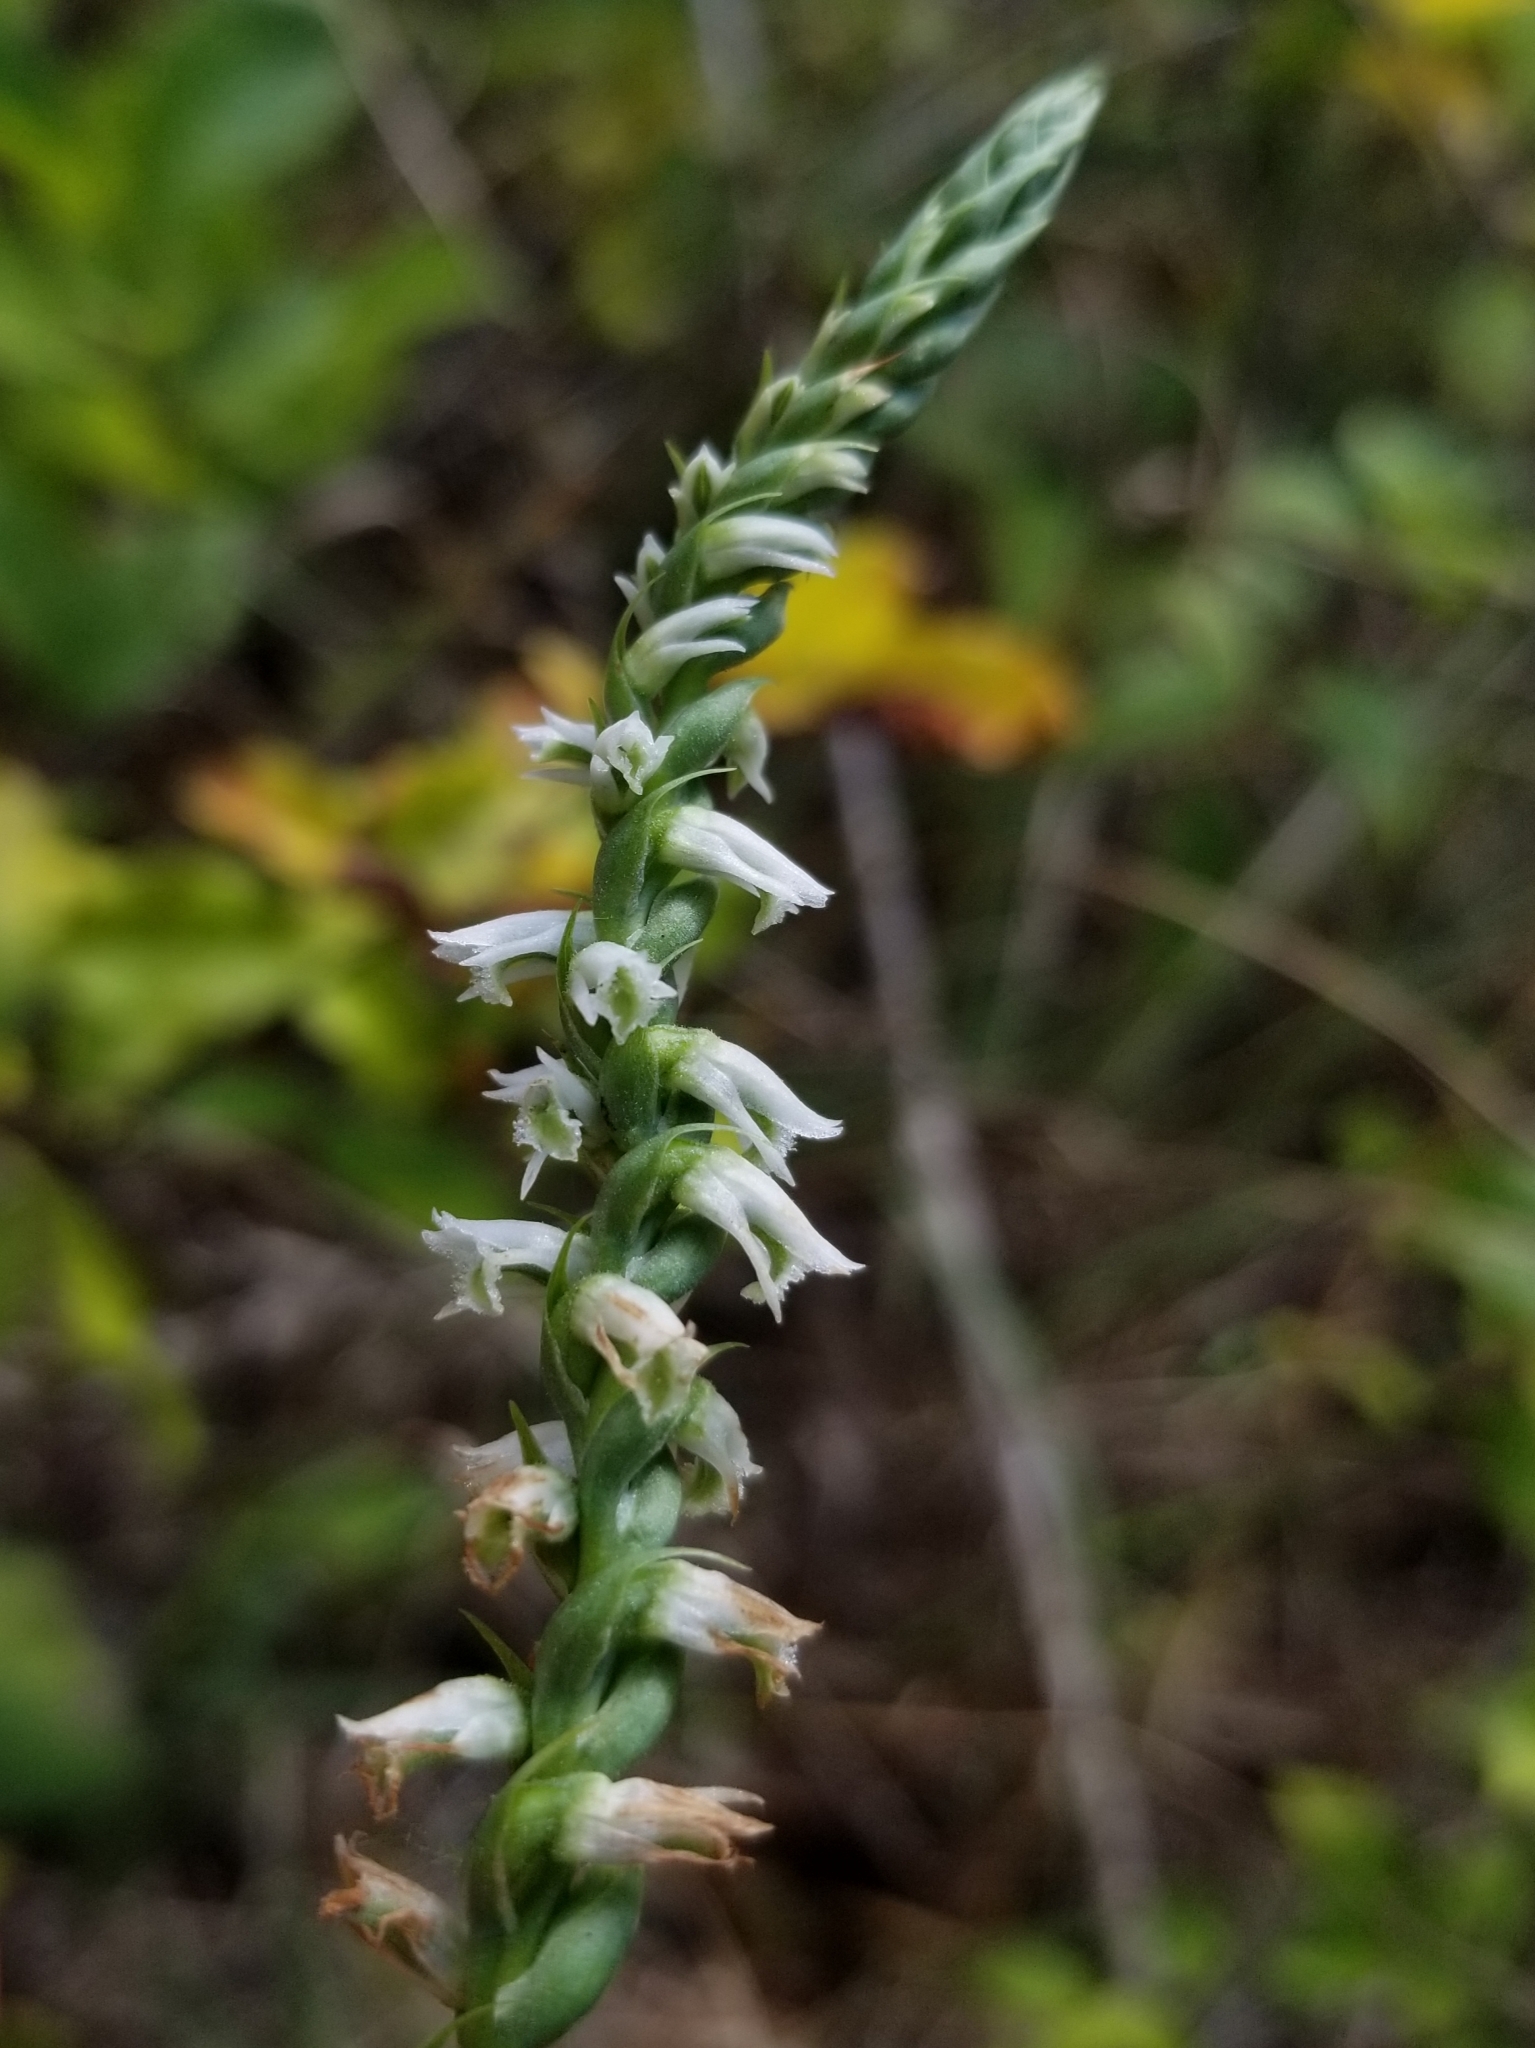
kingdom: Plantae
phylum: Tracheophyta
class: Liliopsida
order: Asparagales
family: Orchidaceae
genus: Spiranthes
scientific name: Spiranthes lacera
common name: Northern slender ladies'-tresses
